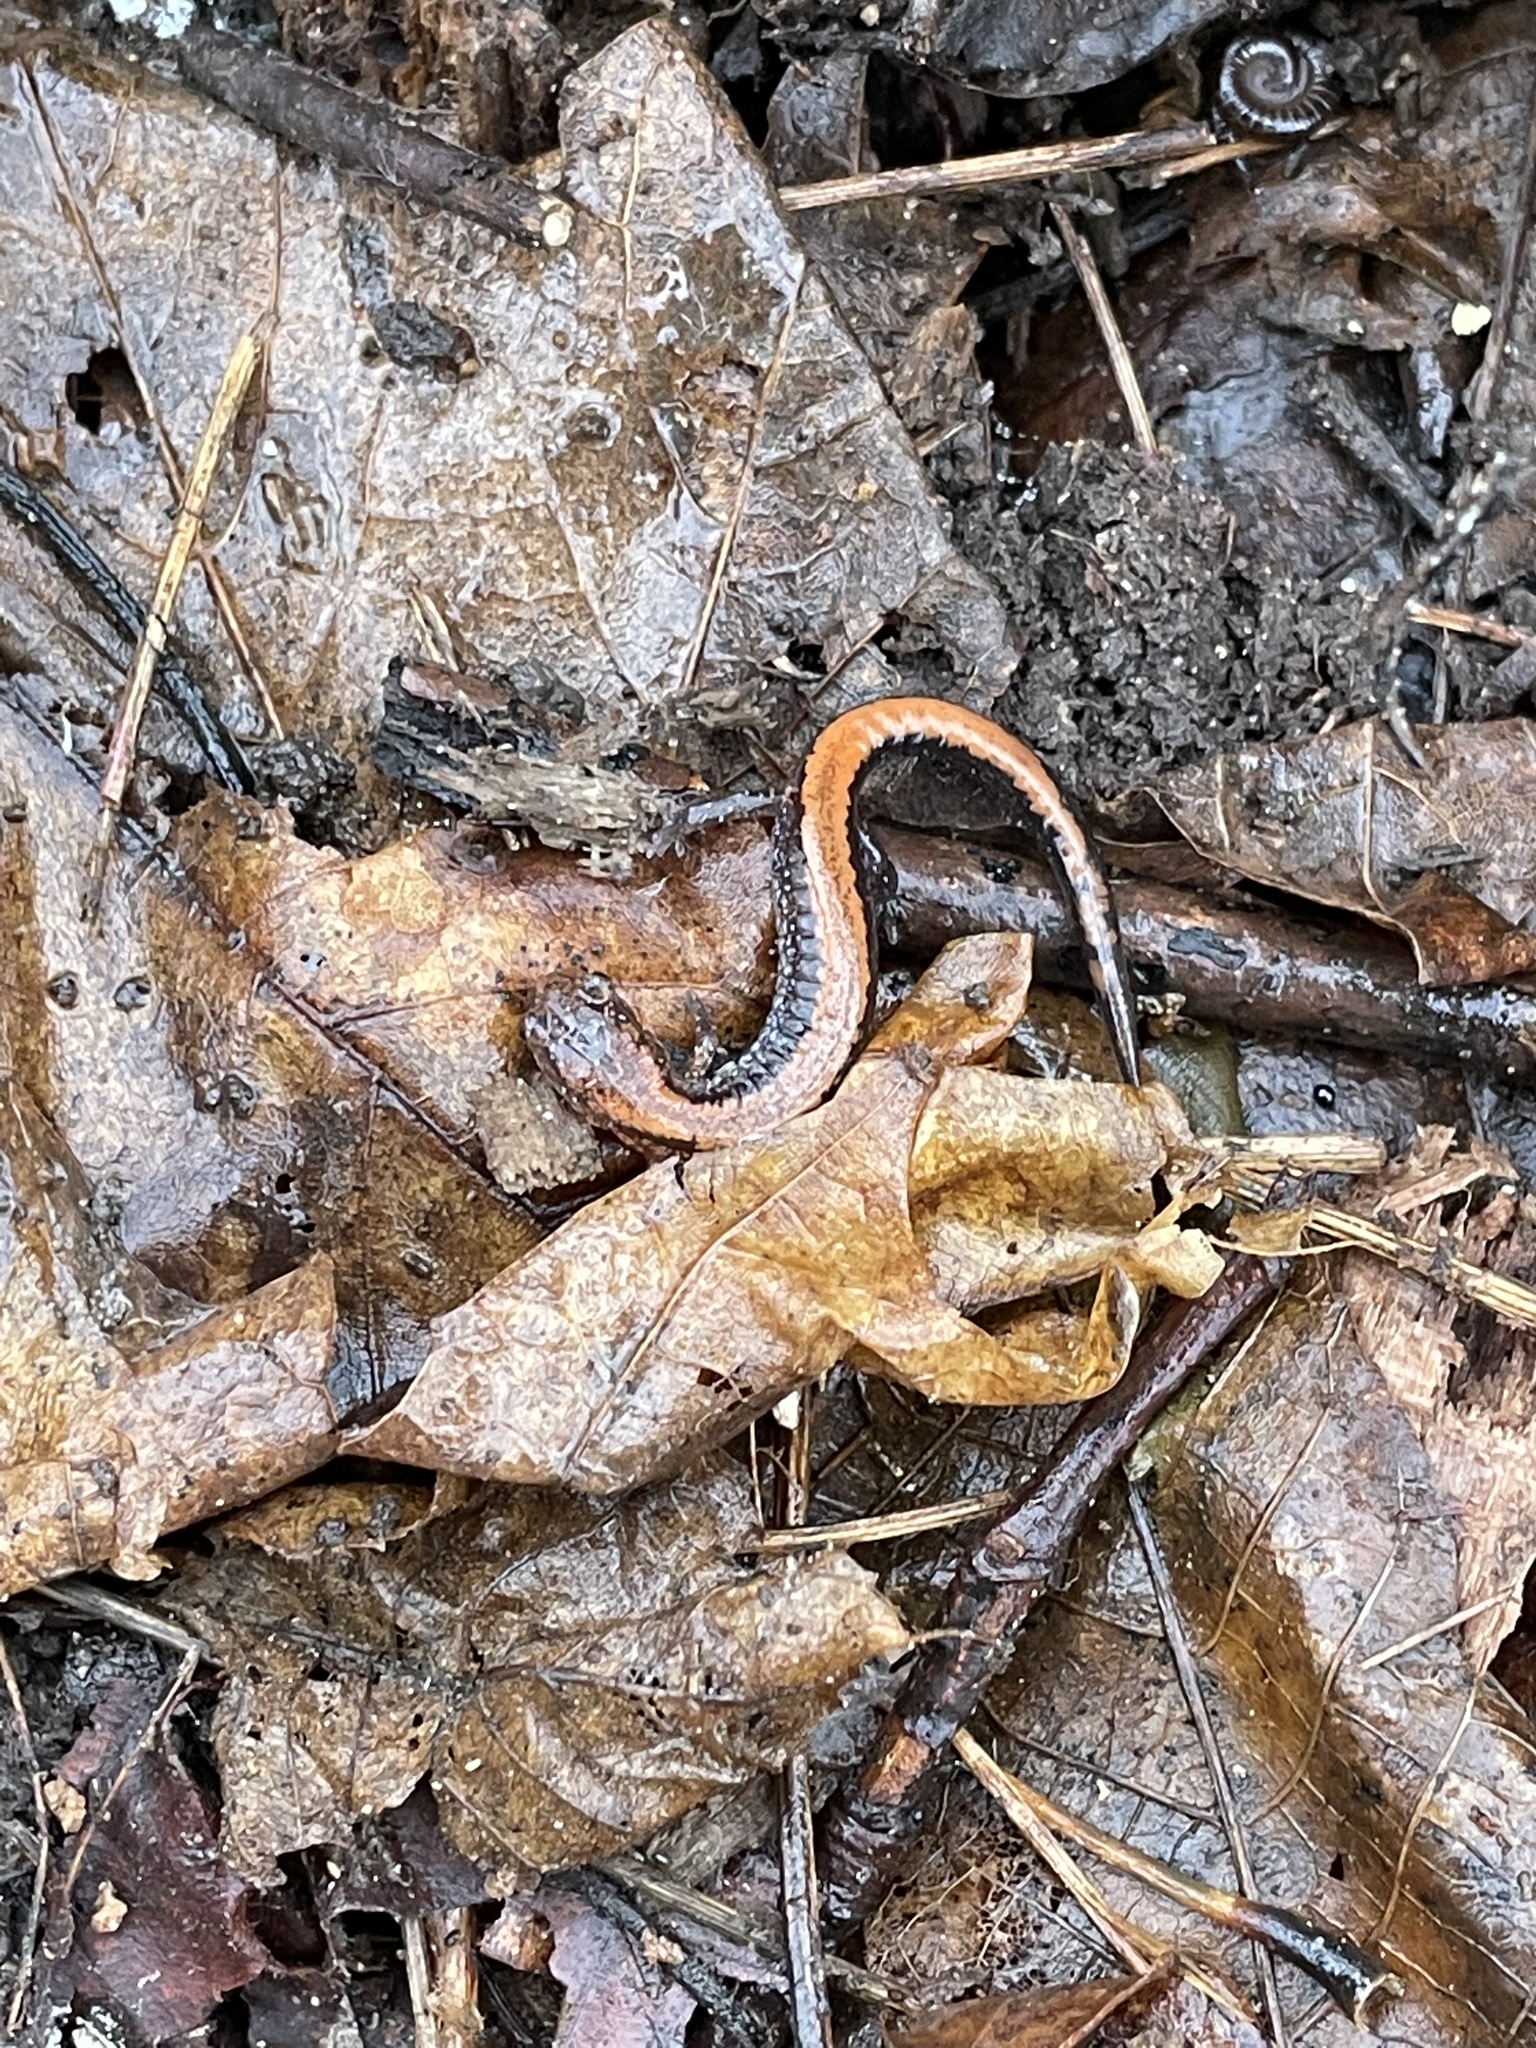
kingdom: Animalia
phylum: Chordata
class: Amphibia
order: Caudata
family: Plethodontidae
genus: Plethodon
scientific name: Plethodon cinereus
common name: Redback salamander
